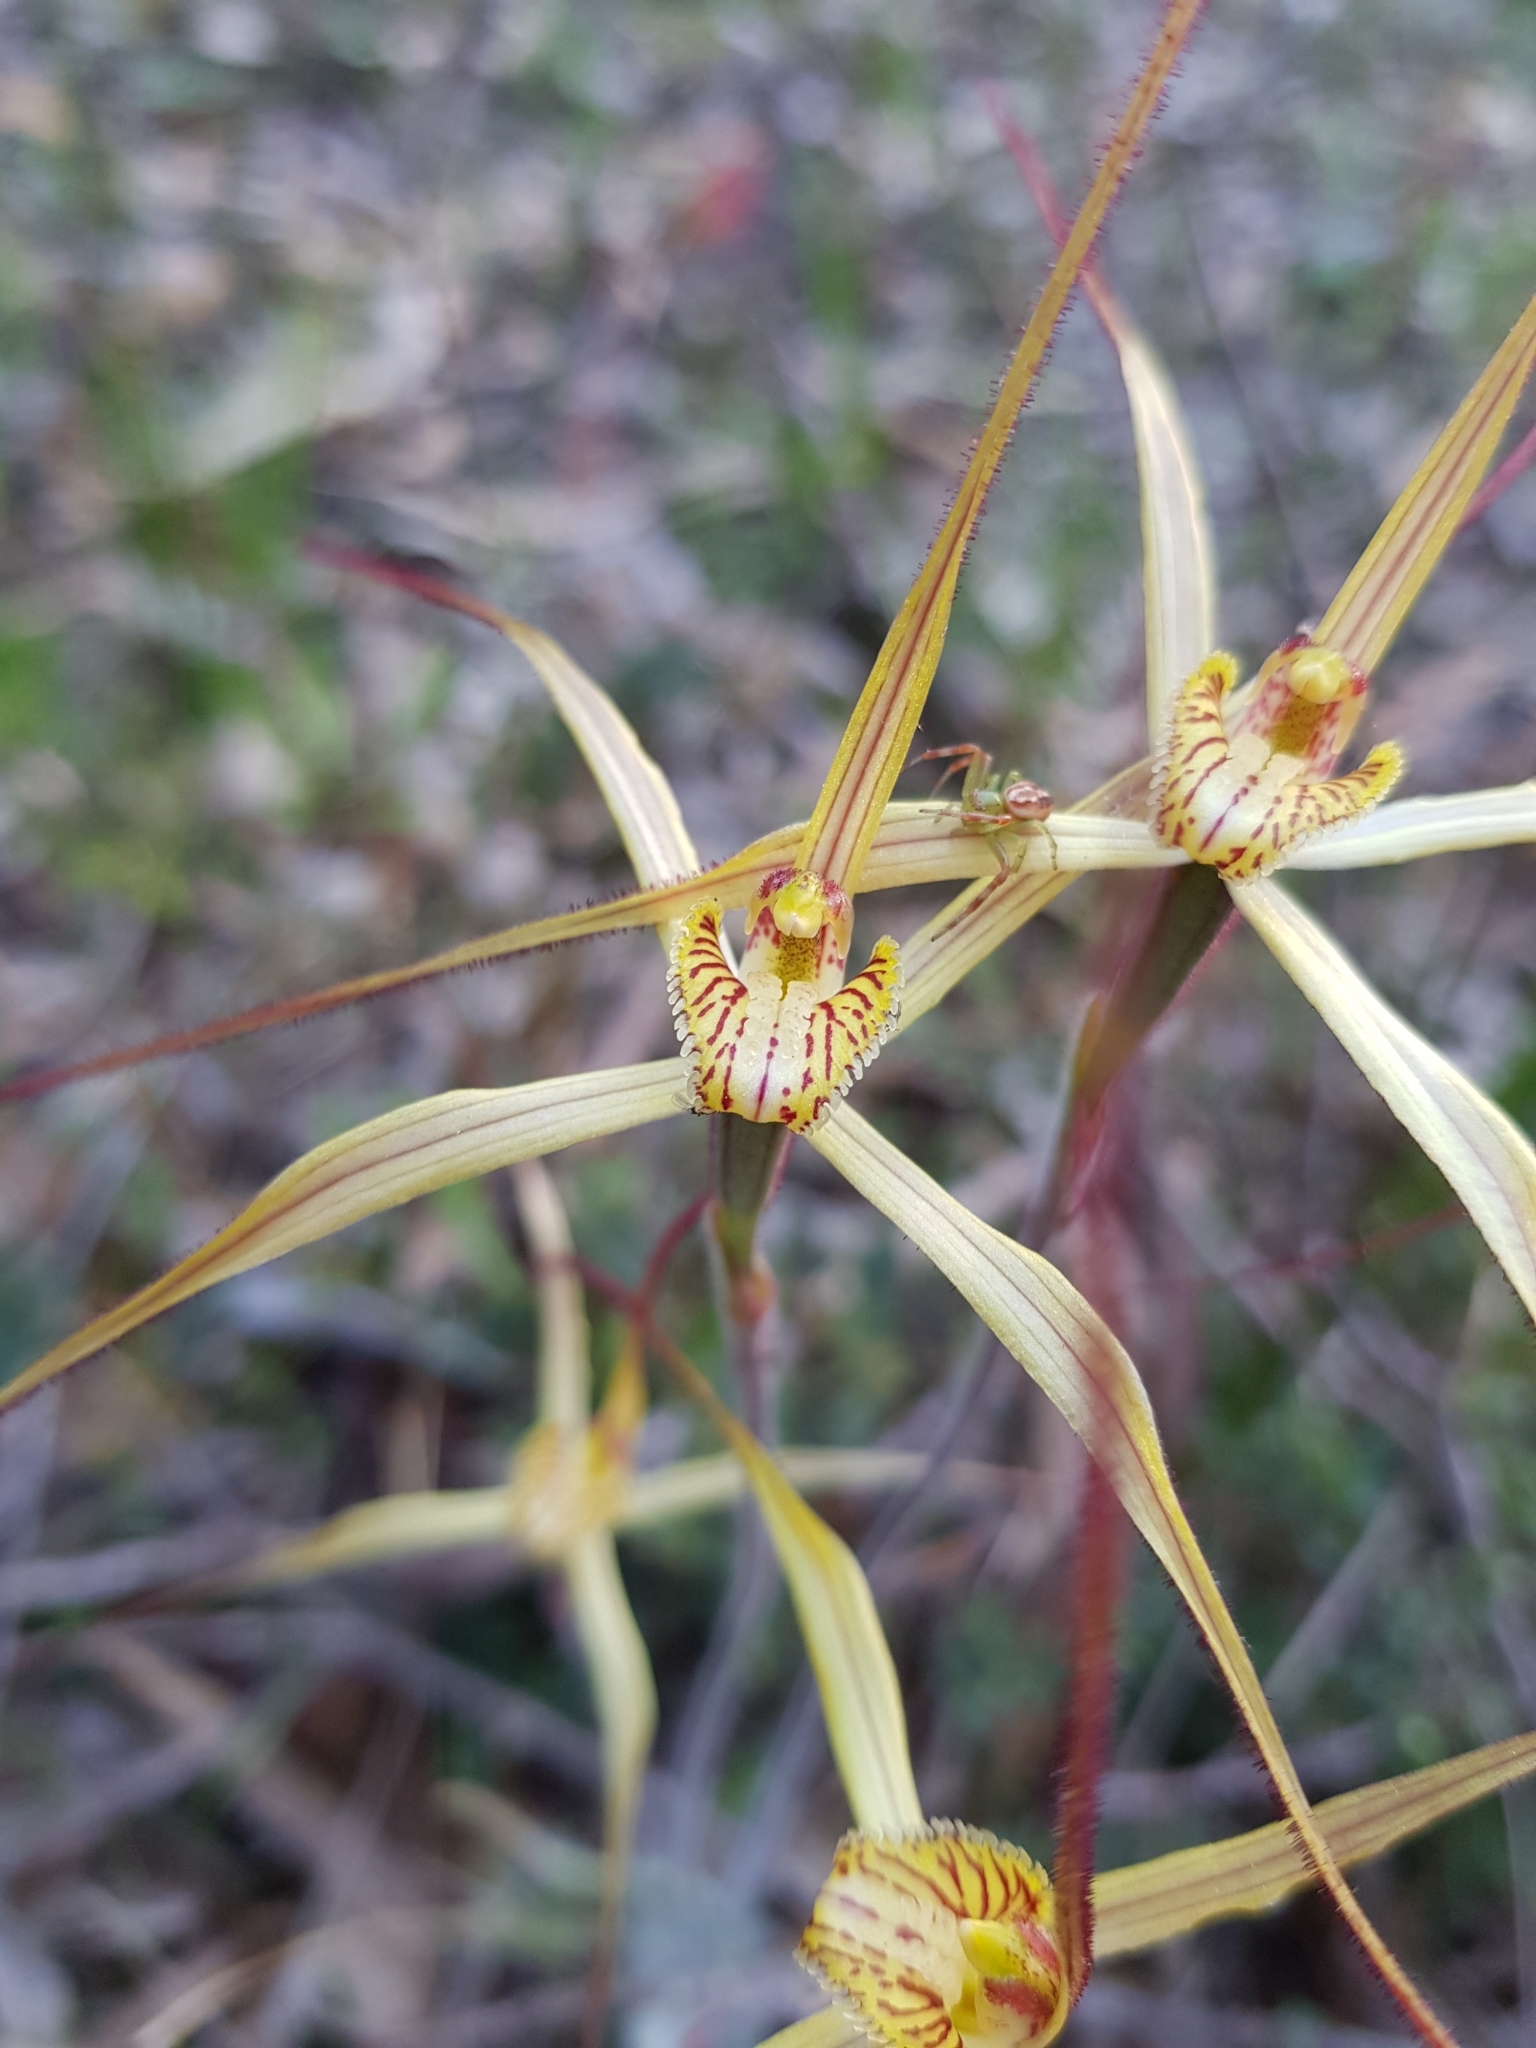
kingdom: Plantae
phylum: Tracheophyta
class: Liliopsida
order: Asparagales
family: Orchidaceae
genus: Caladenia
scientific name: Caladenia straminichila
